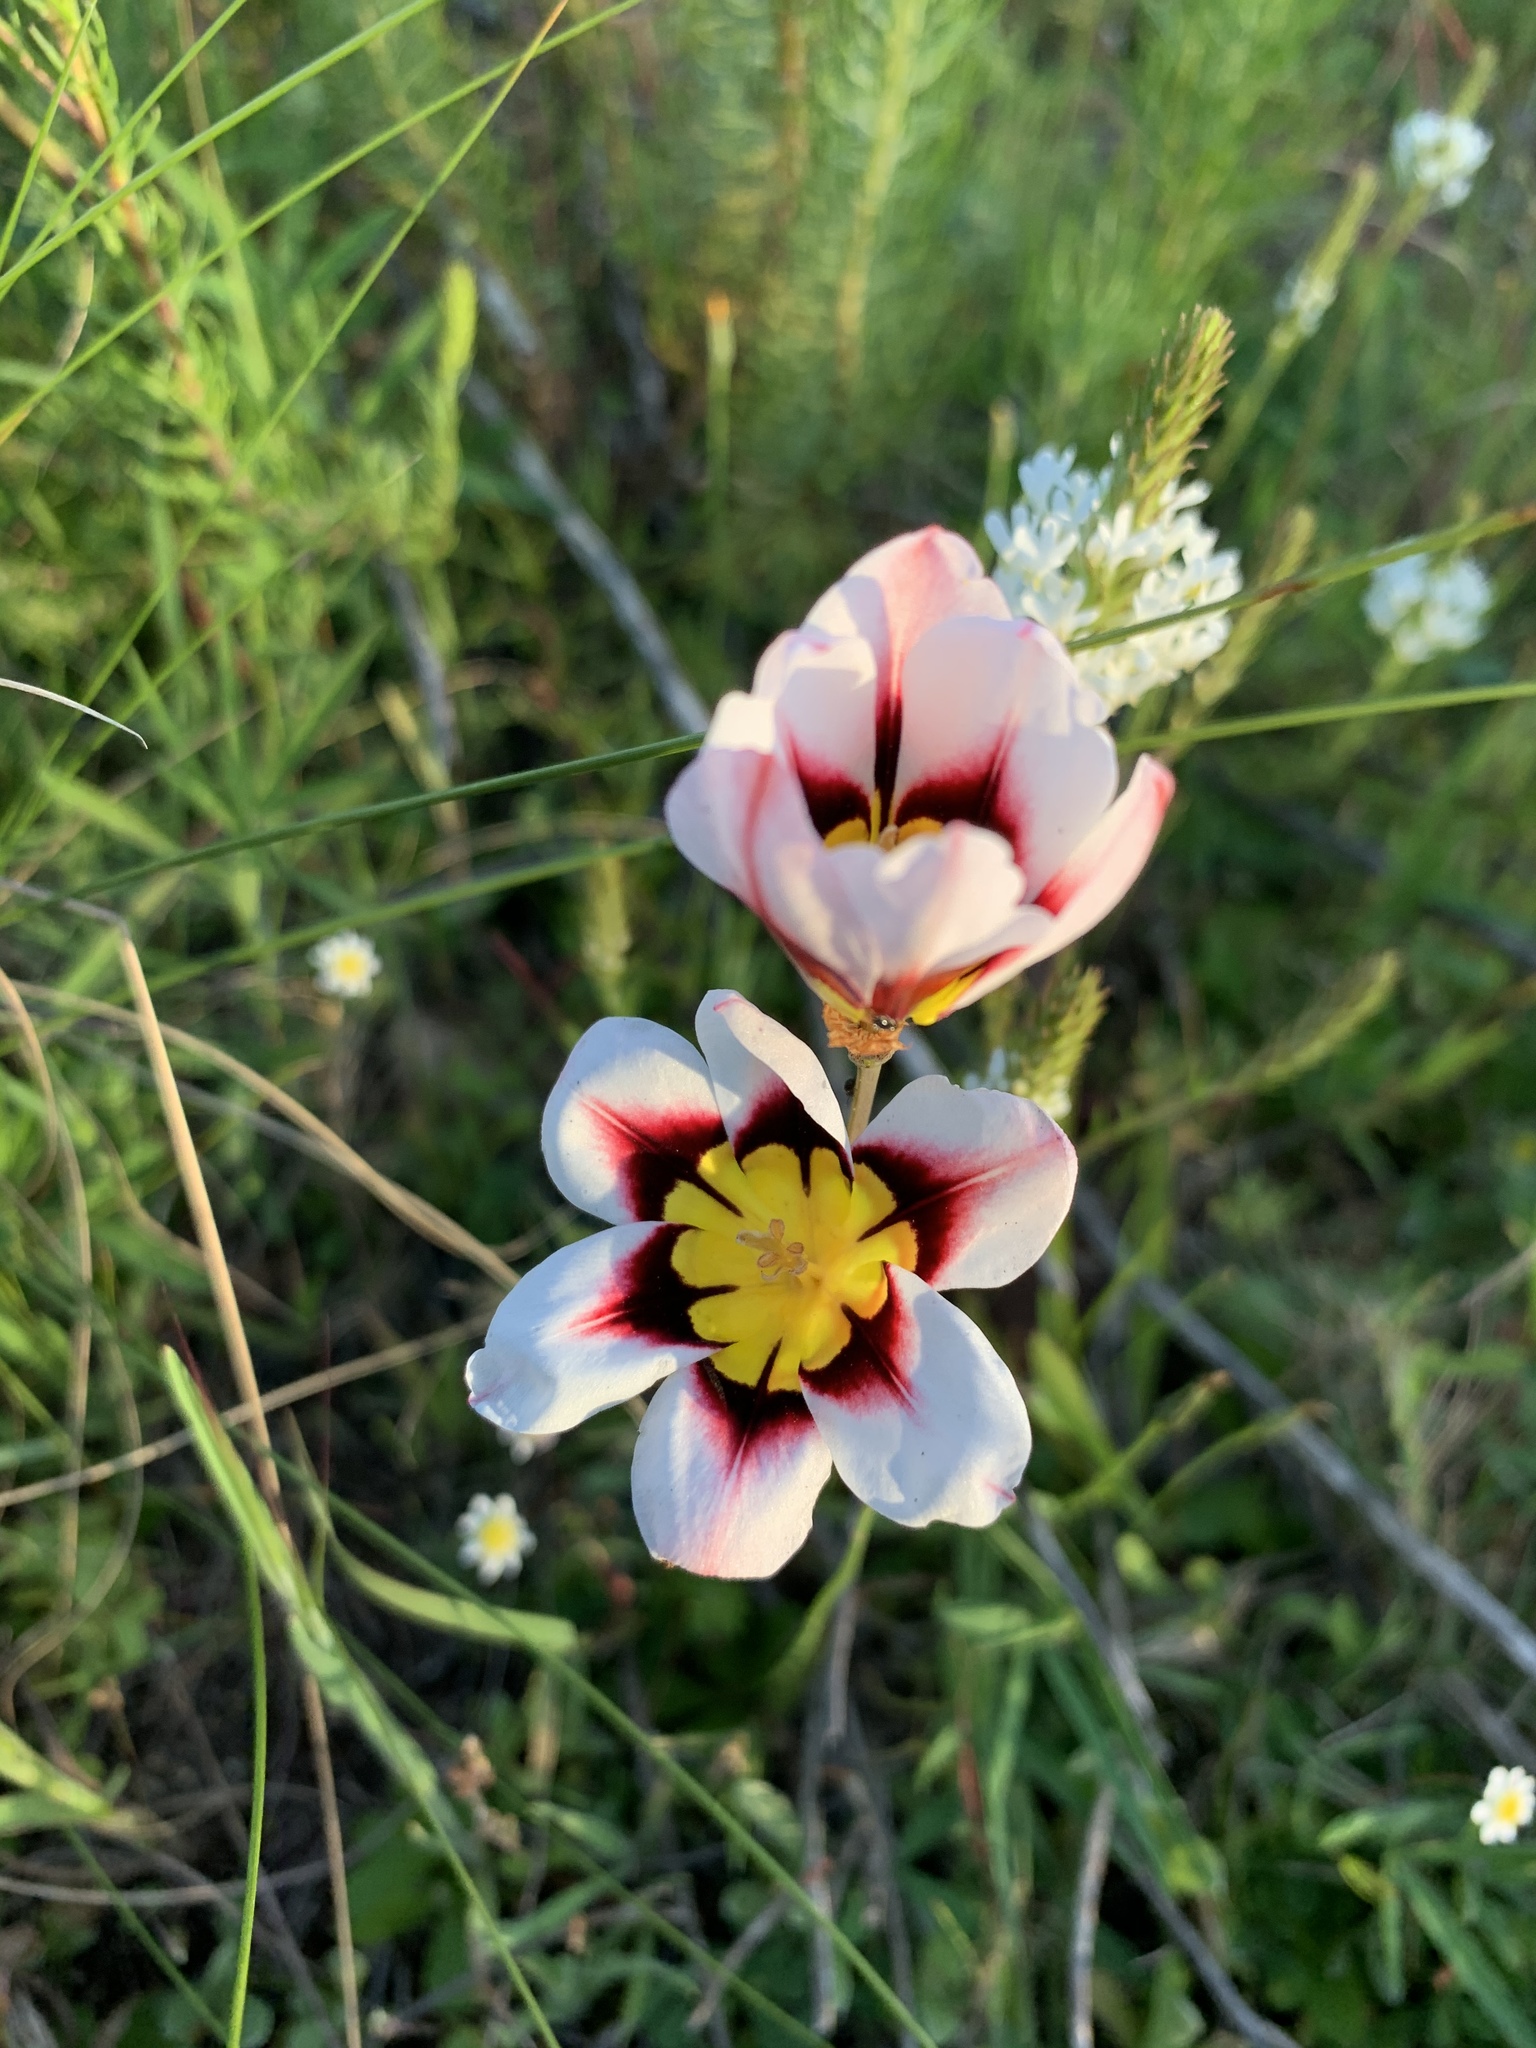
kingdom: Plantae
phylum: Tracheophyta
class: Liliopsida
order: Asparagales
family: Iridaceae
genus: Sparaxis
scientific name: Sparaxis tricolor
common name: Wandflower
